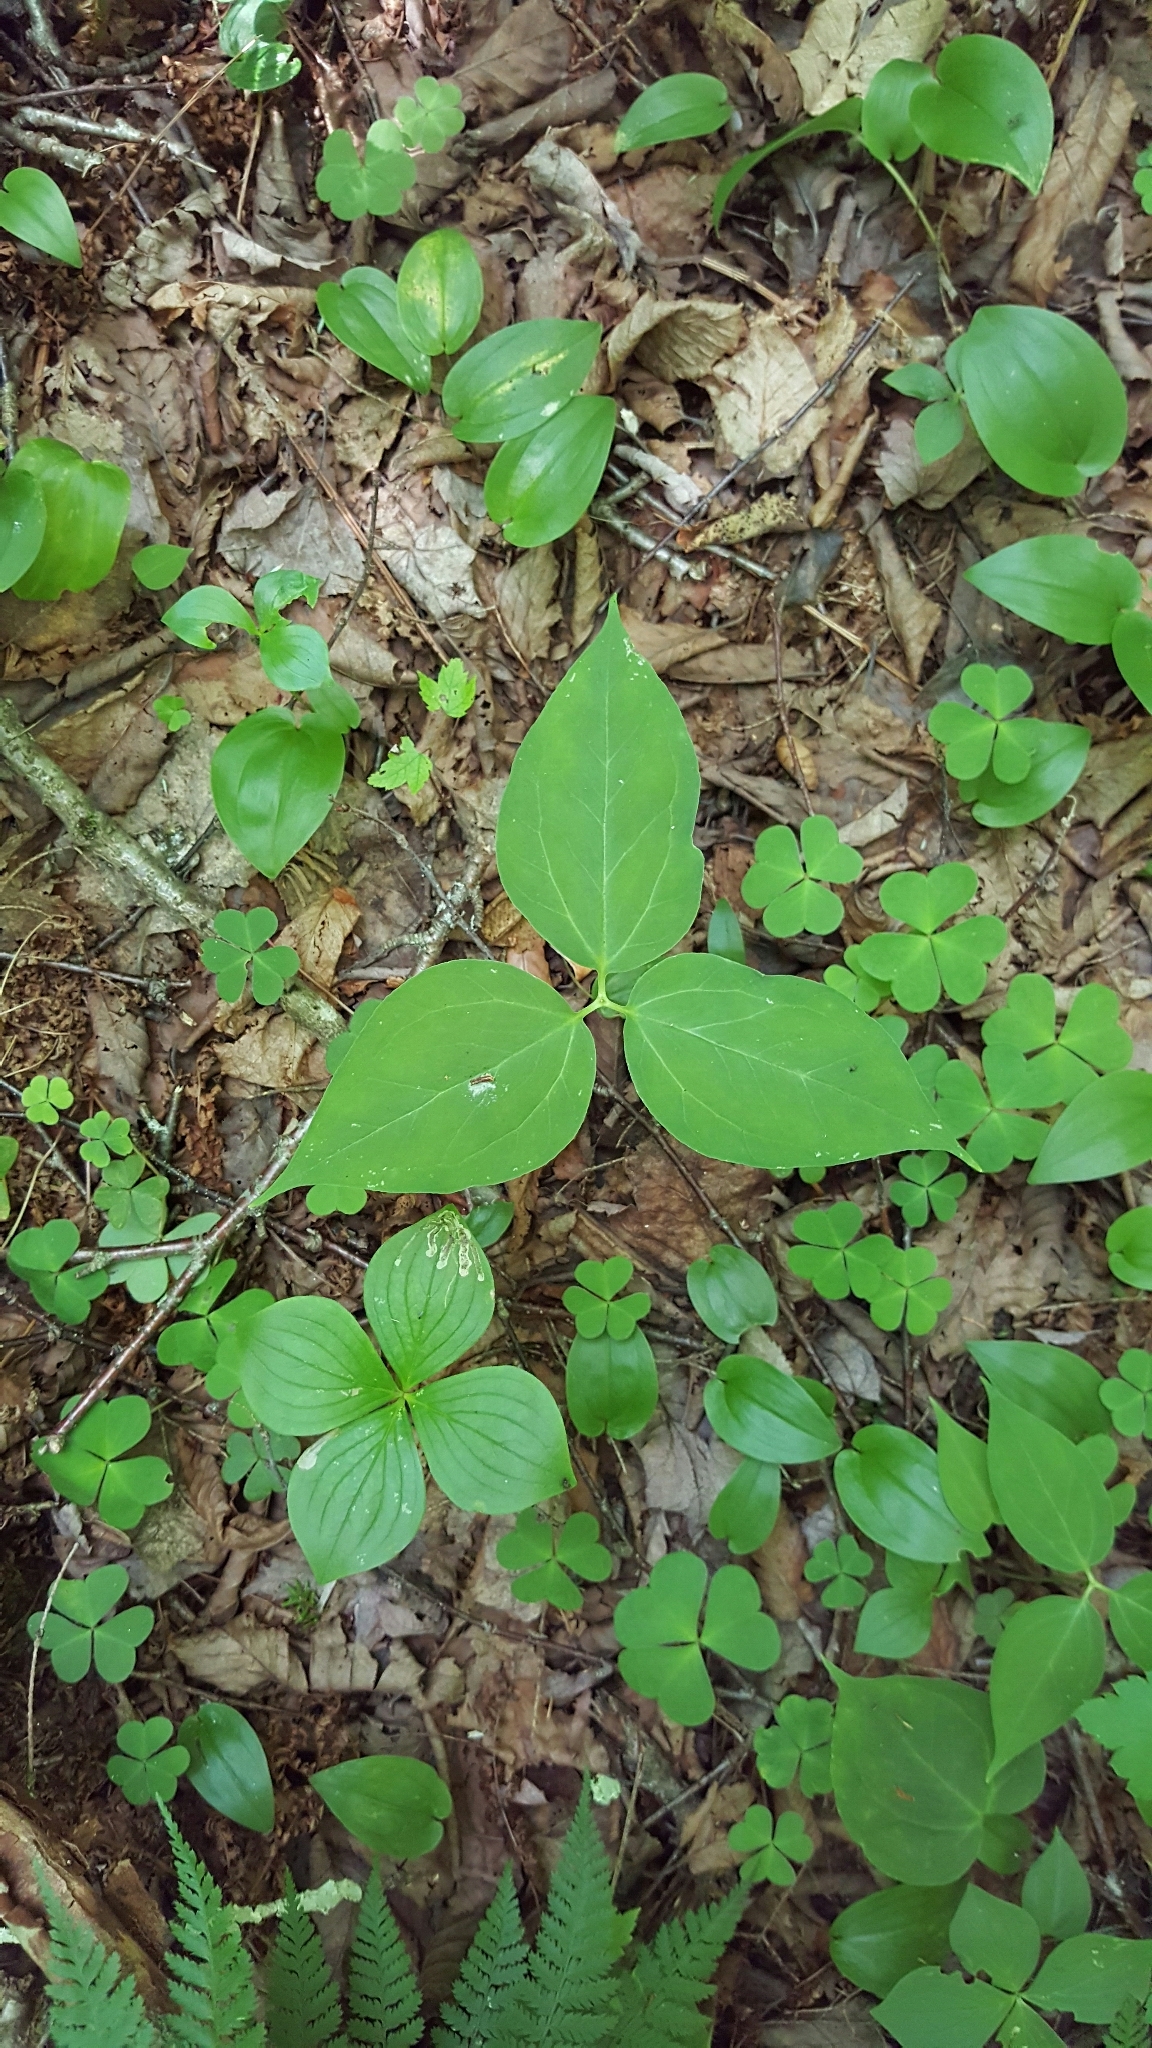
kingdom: Plantae
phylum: Tracheophyta
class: Liliopsida
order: Liliales
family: Melanthiaceae
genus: Trillium
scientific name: Trillium undulatum
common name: Paint trillium
